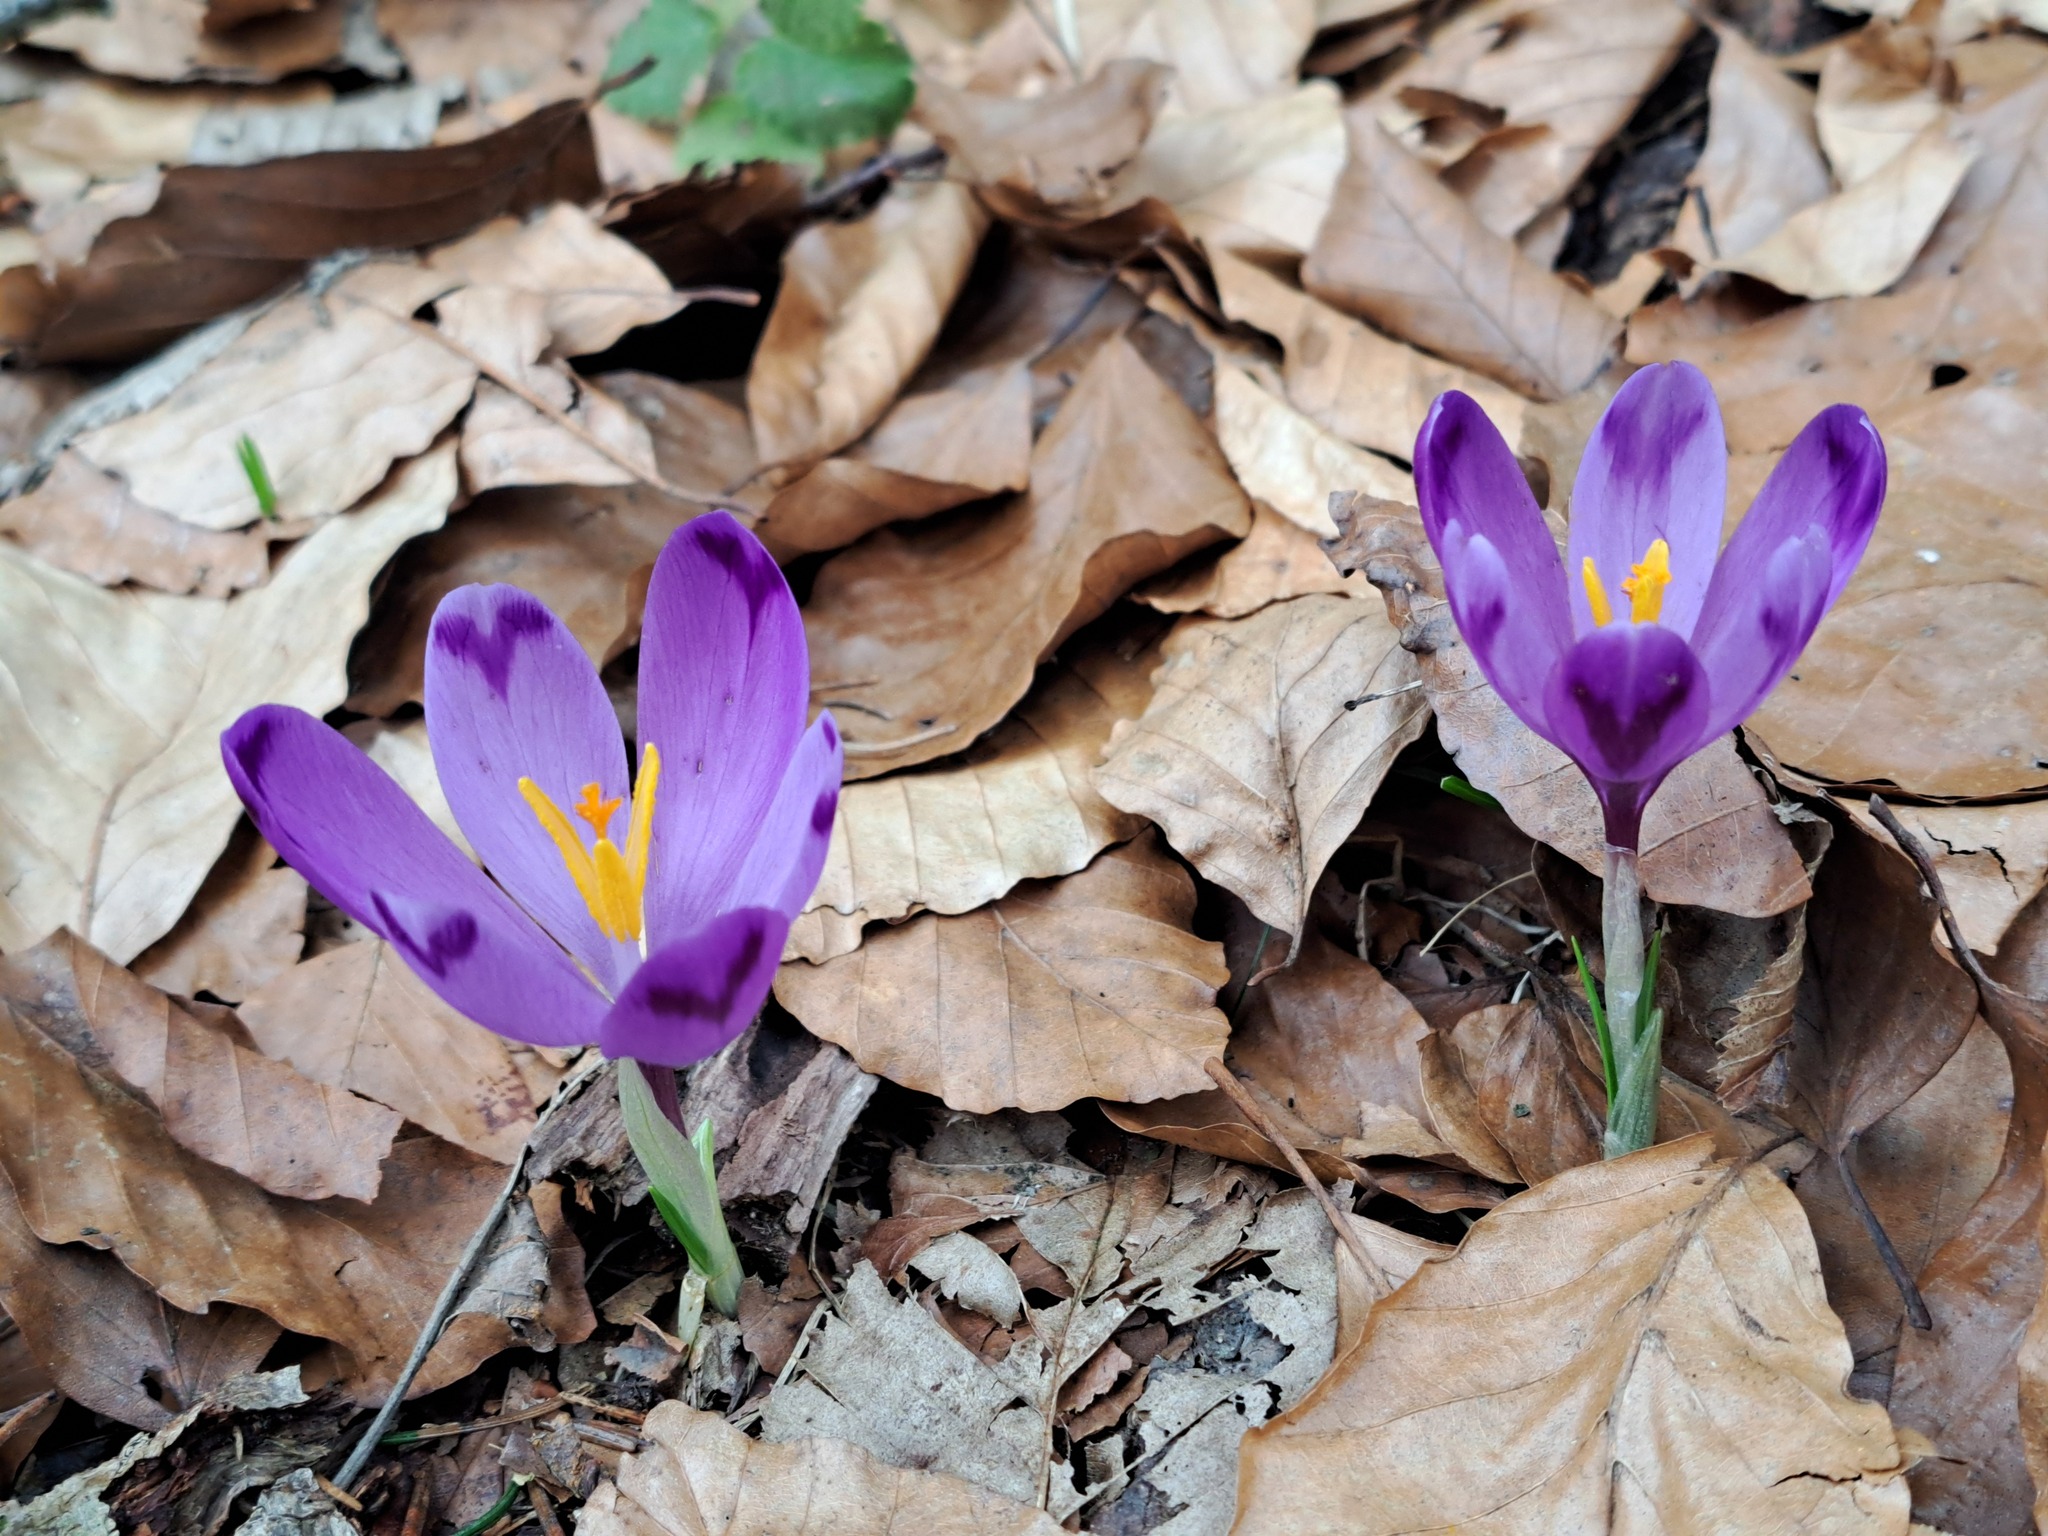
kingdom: Plantae
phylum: Tracheophyta
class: Liliopsida
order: Asparagales
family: Iridaceae
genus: Crocus
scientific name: Crocus heuffelianus
